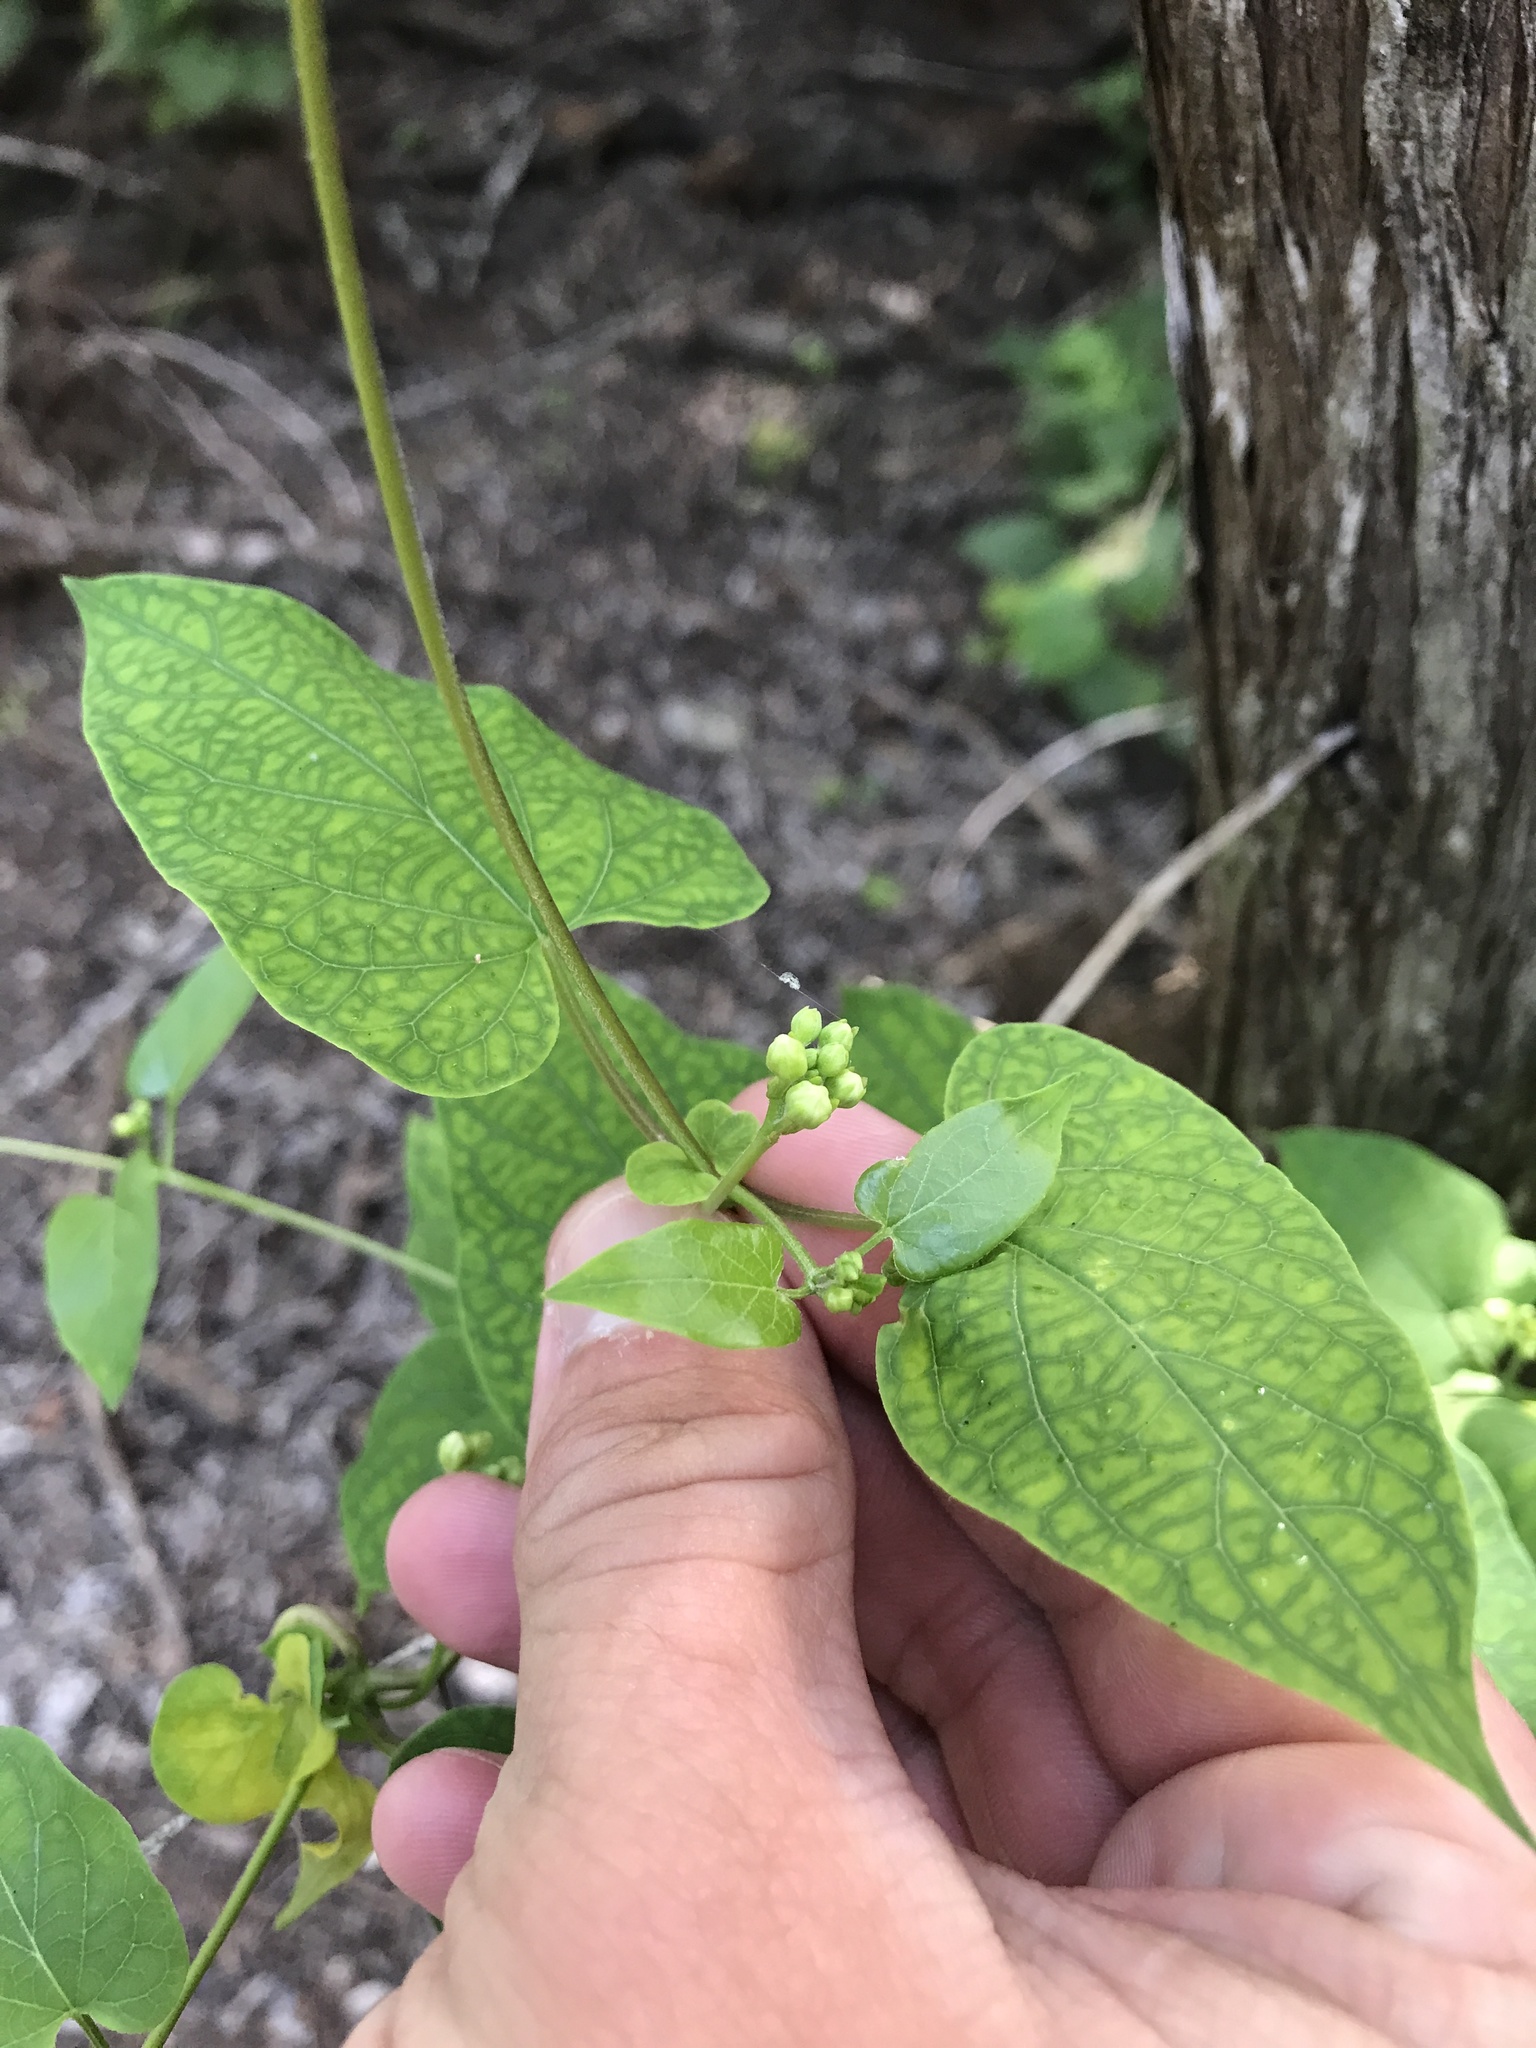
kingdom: Plantae
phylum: Tracheophyta
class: Magnoliopsida
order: Gentianales
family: Apocynaceae
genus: Cynanchum
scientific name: Cynanchum racemosum
